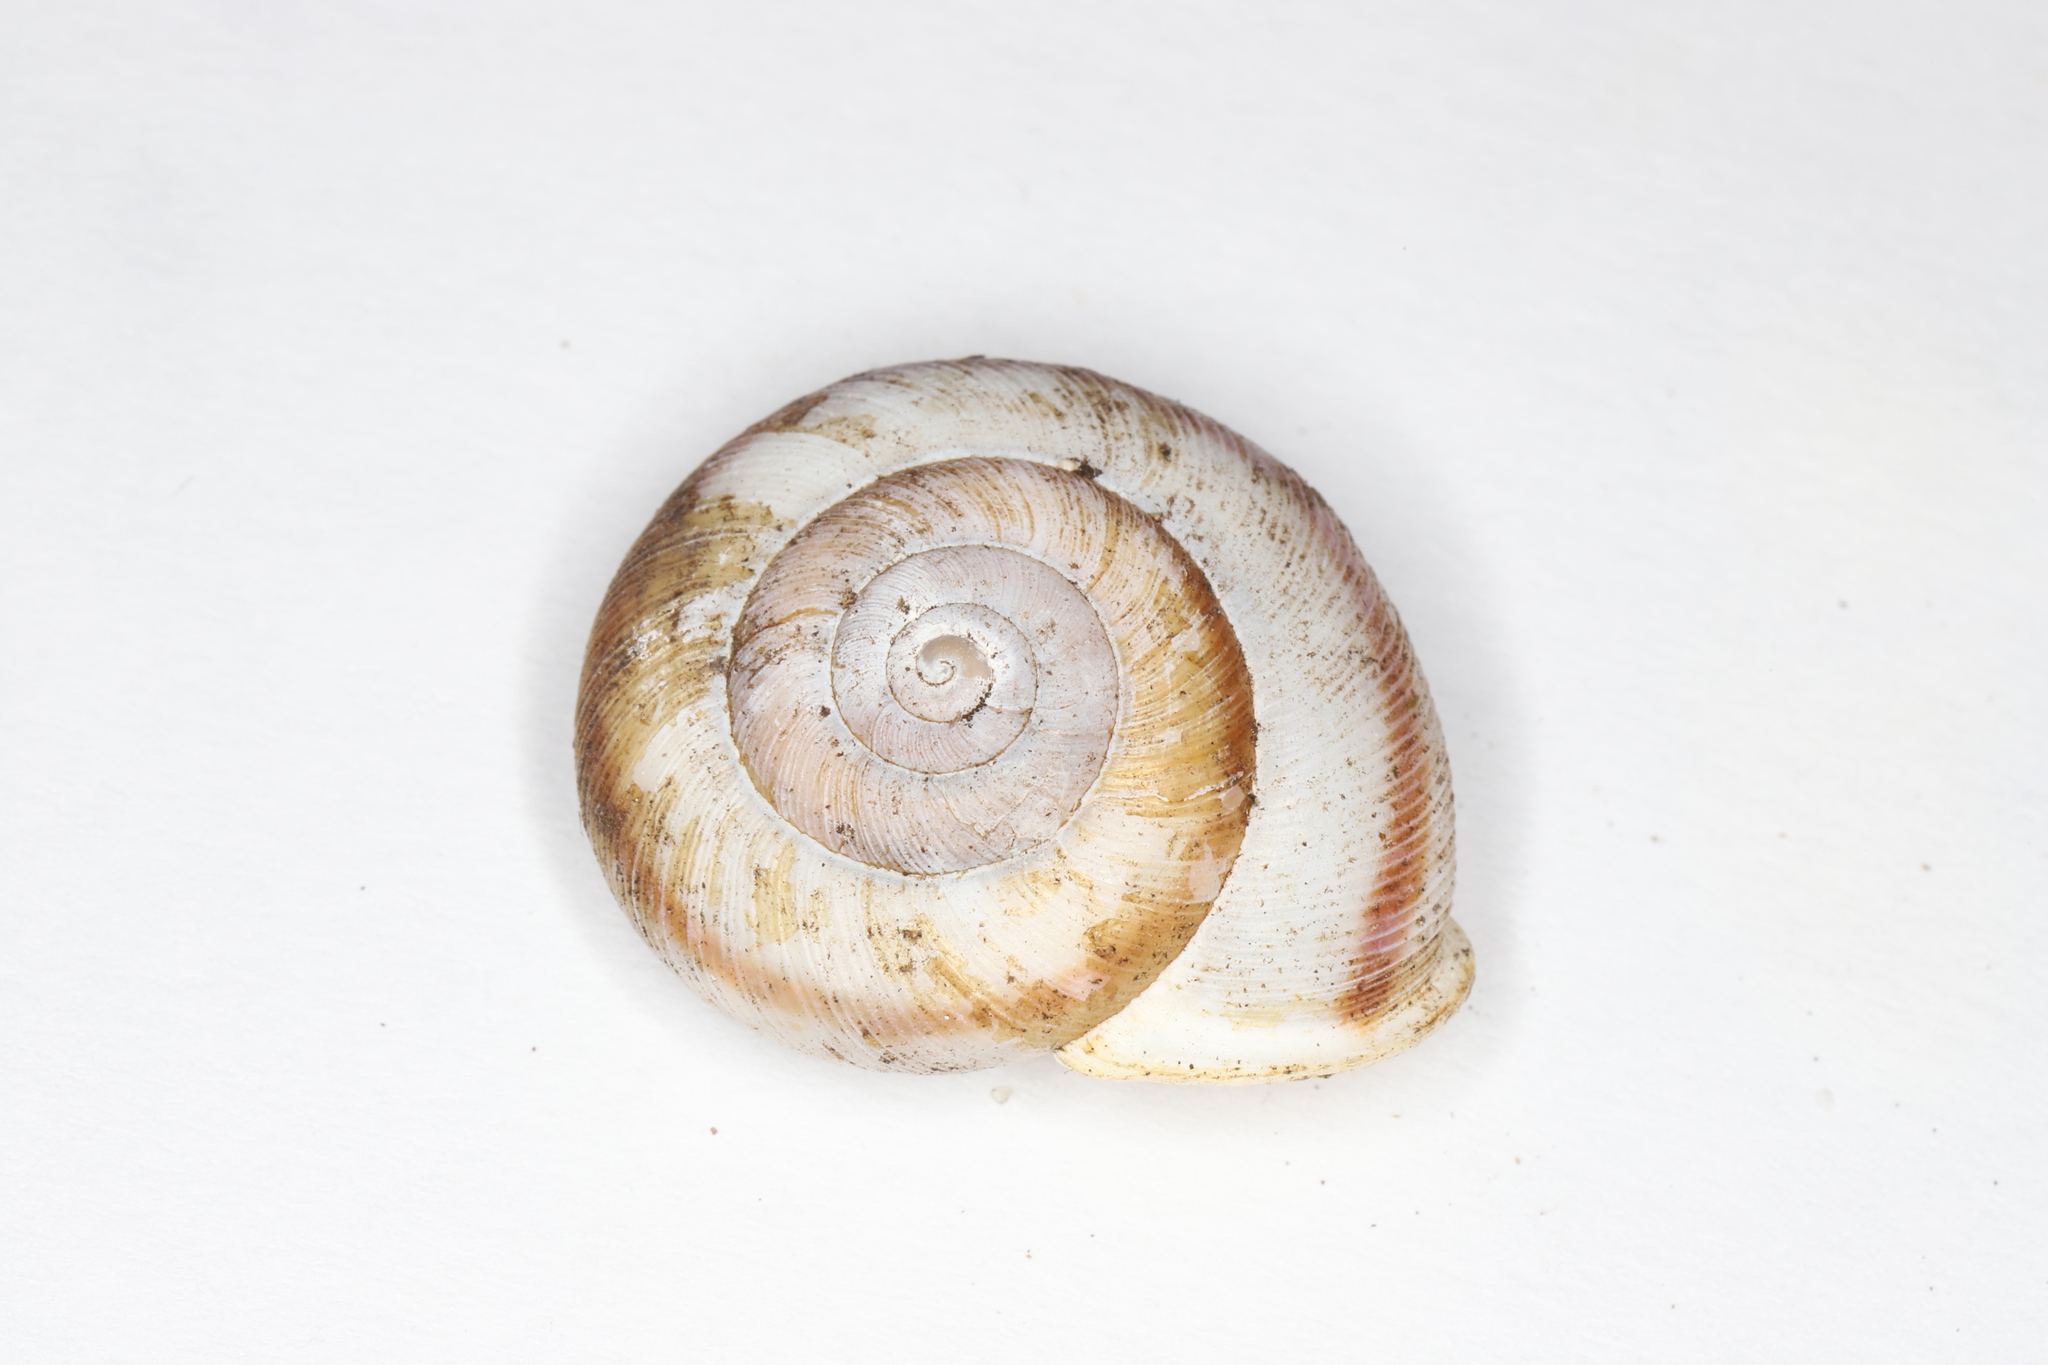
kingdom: Animalia
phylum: Mollusca
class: Gastropoda
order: Stylommatophora
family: Polygyridae
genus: Allogona
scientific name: Allogona profunda
